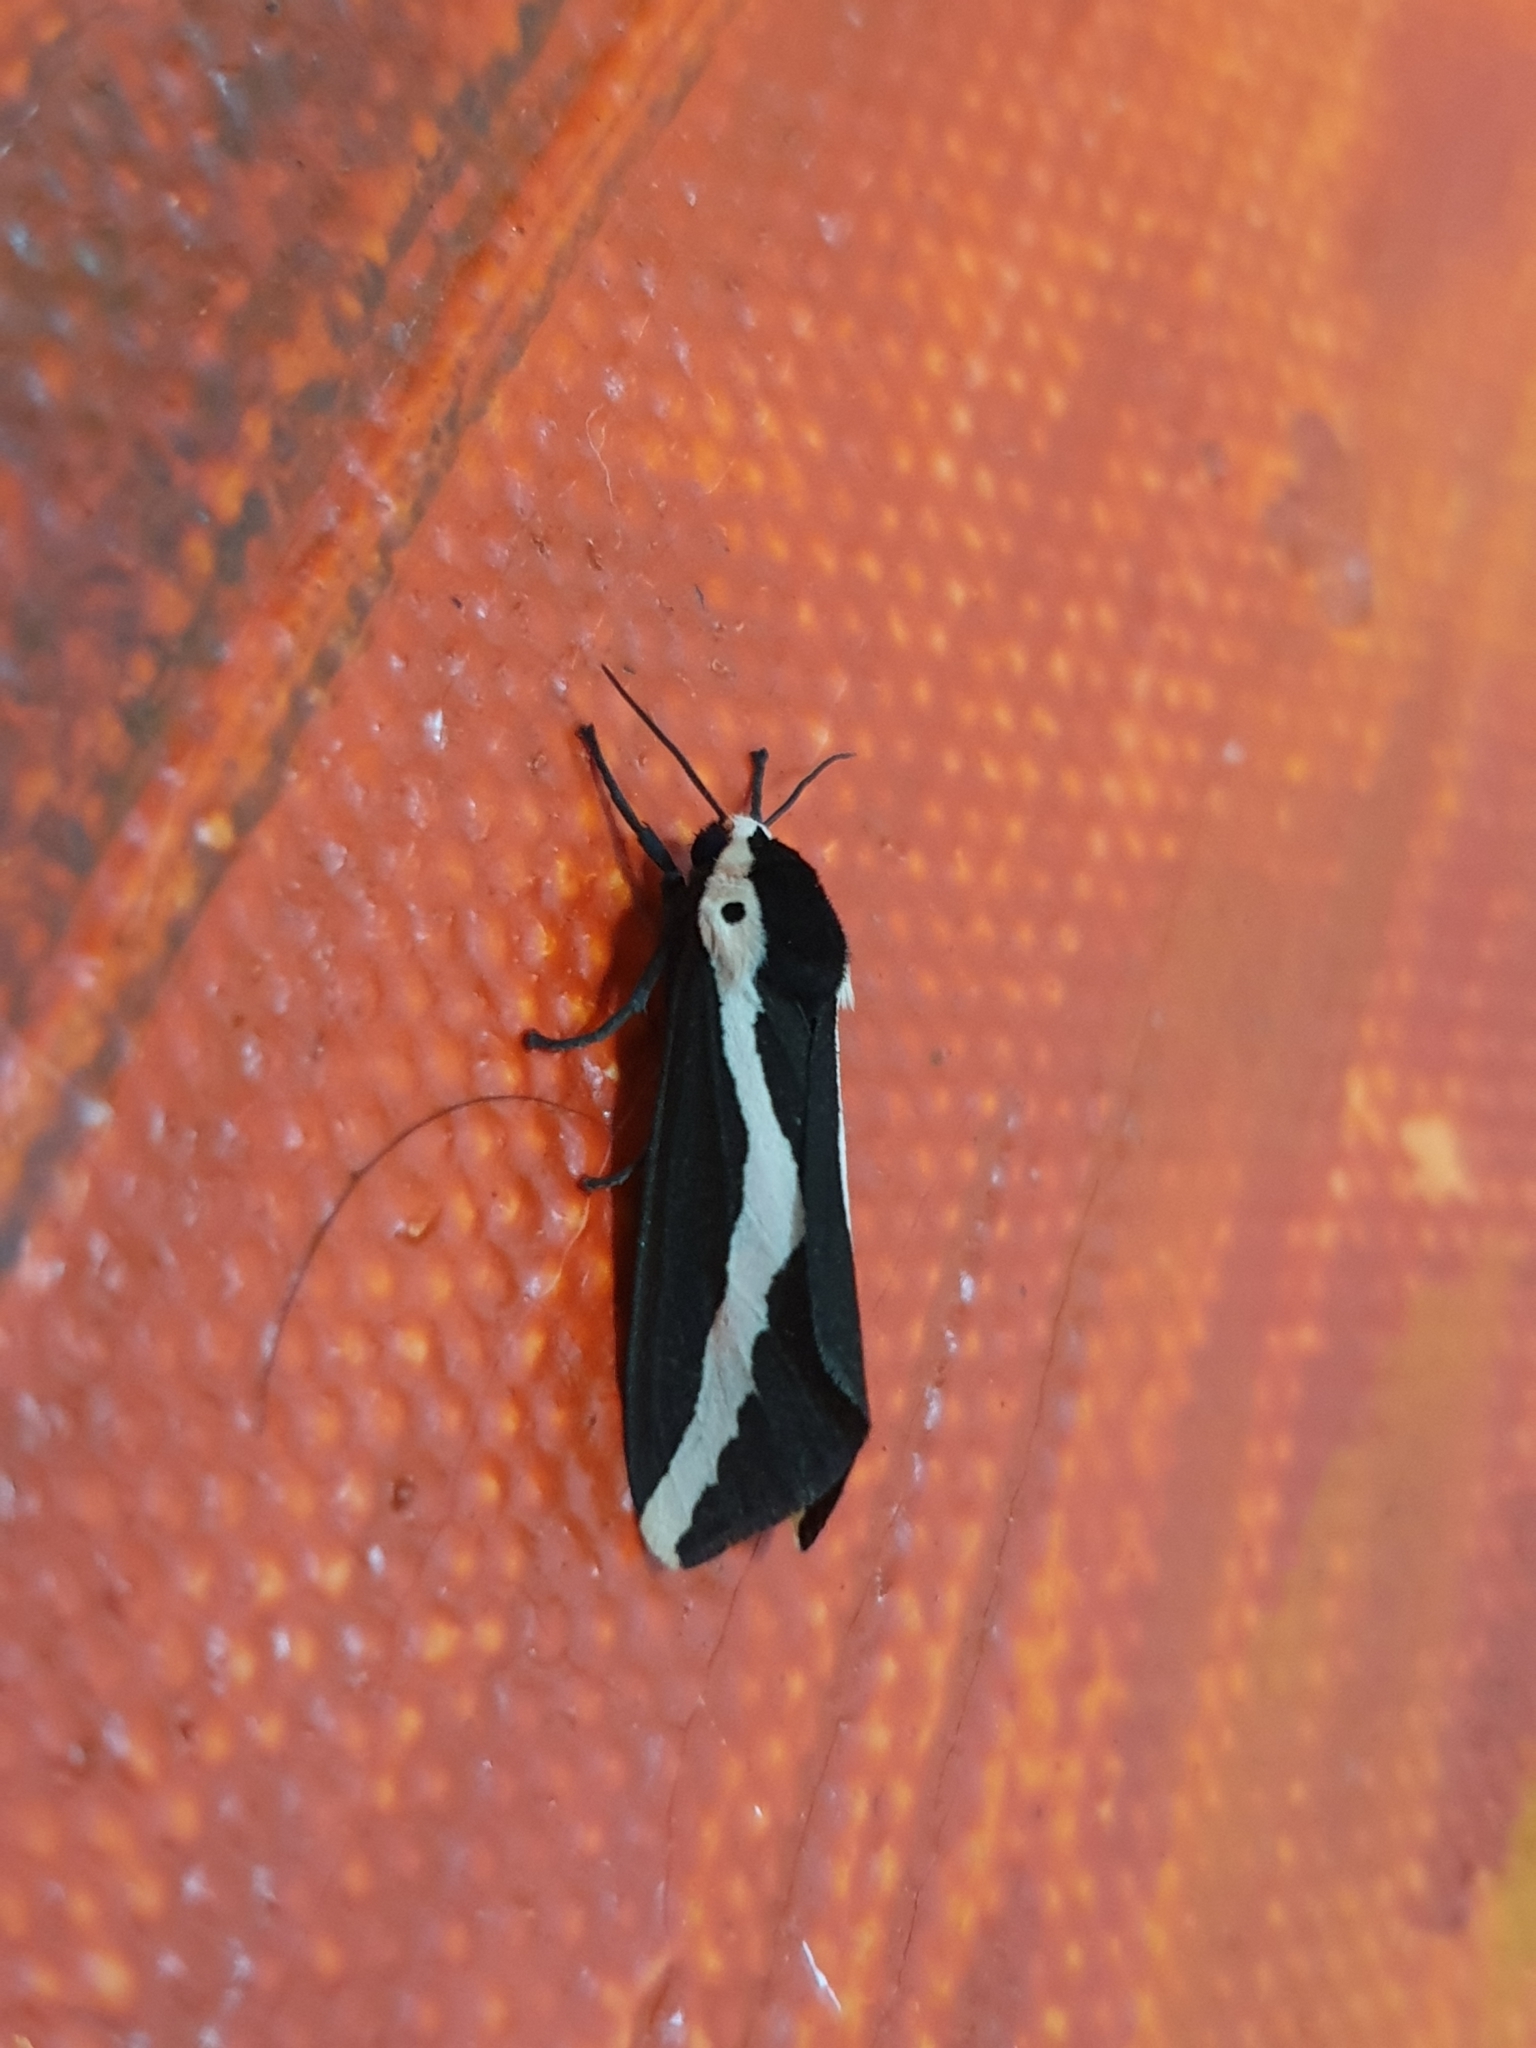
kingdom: Animalia
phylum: Arthropoda
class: Insecta
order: Lepidoptera
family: Erebidae
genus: Estigmene
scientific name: Estigmene
